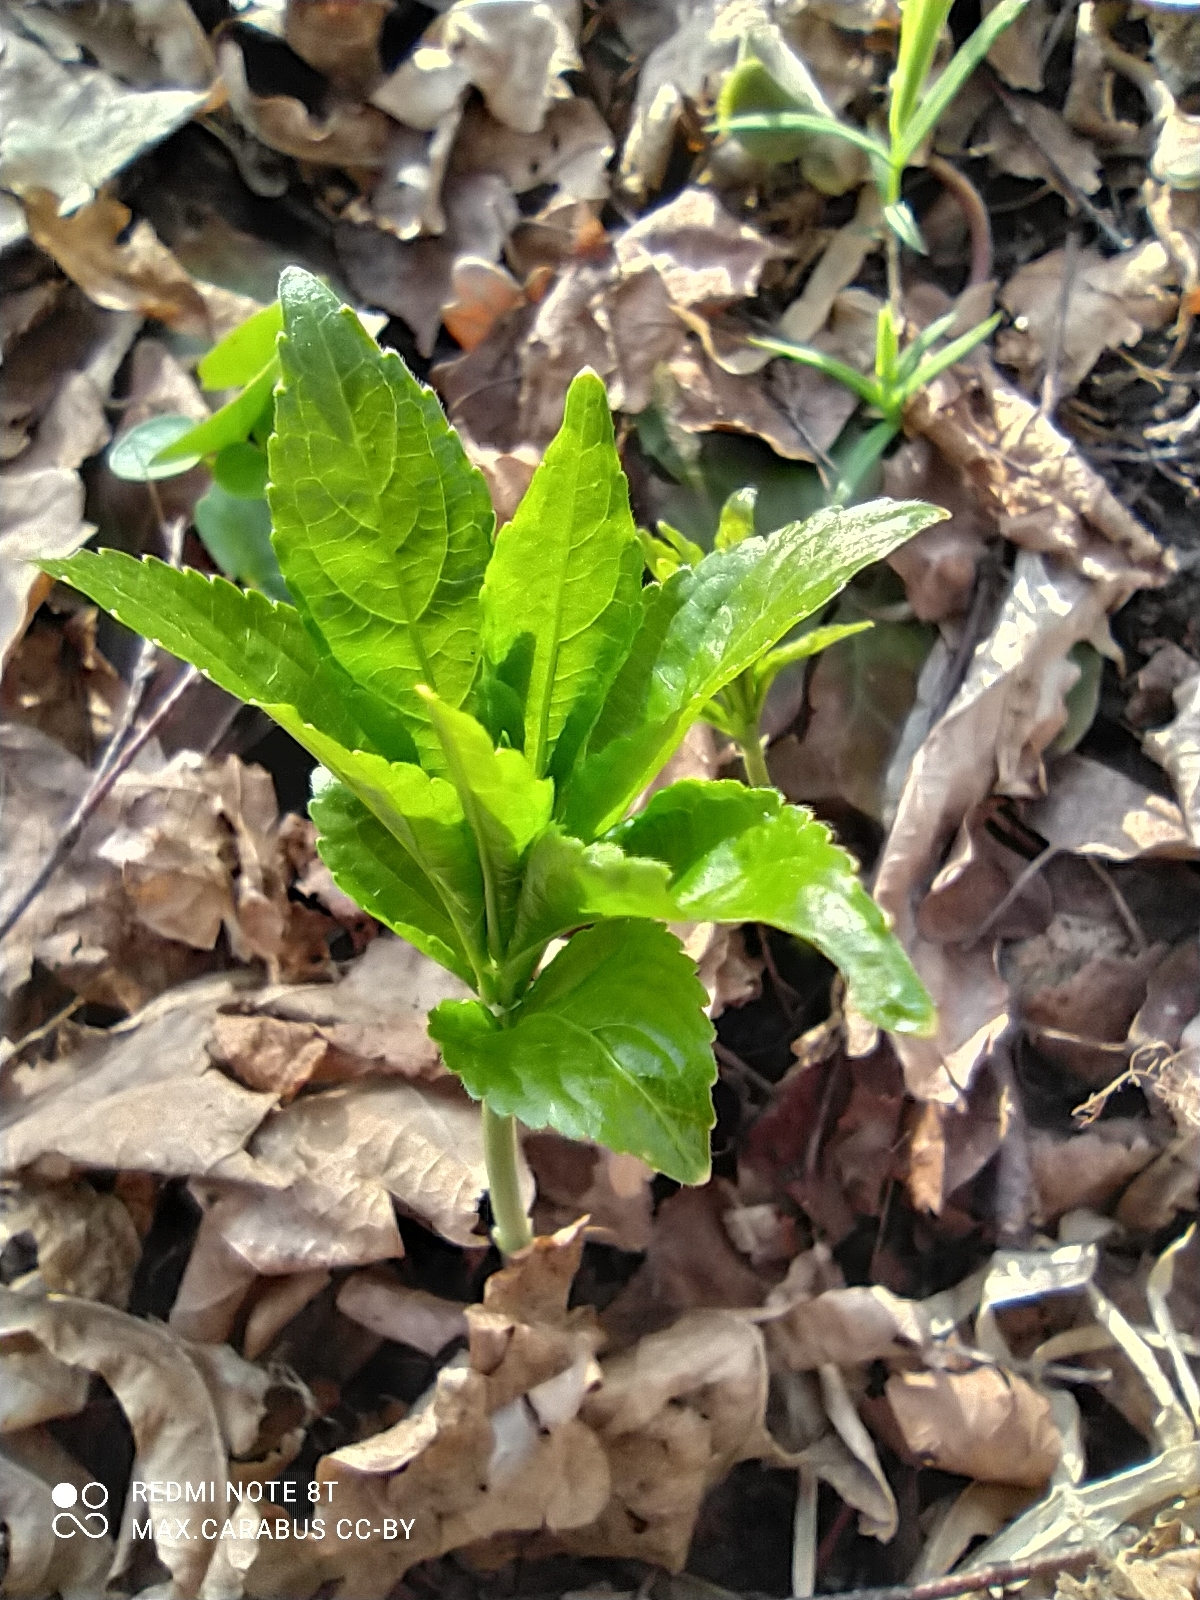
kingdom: Plantae
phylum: Tracheophyta
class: Magnoliopsida
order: Malpighiales
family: Euphorbiaceae
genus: Mercurialis
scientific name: Mercurialis perennis
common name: Dog mercury
